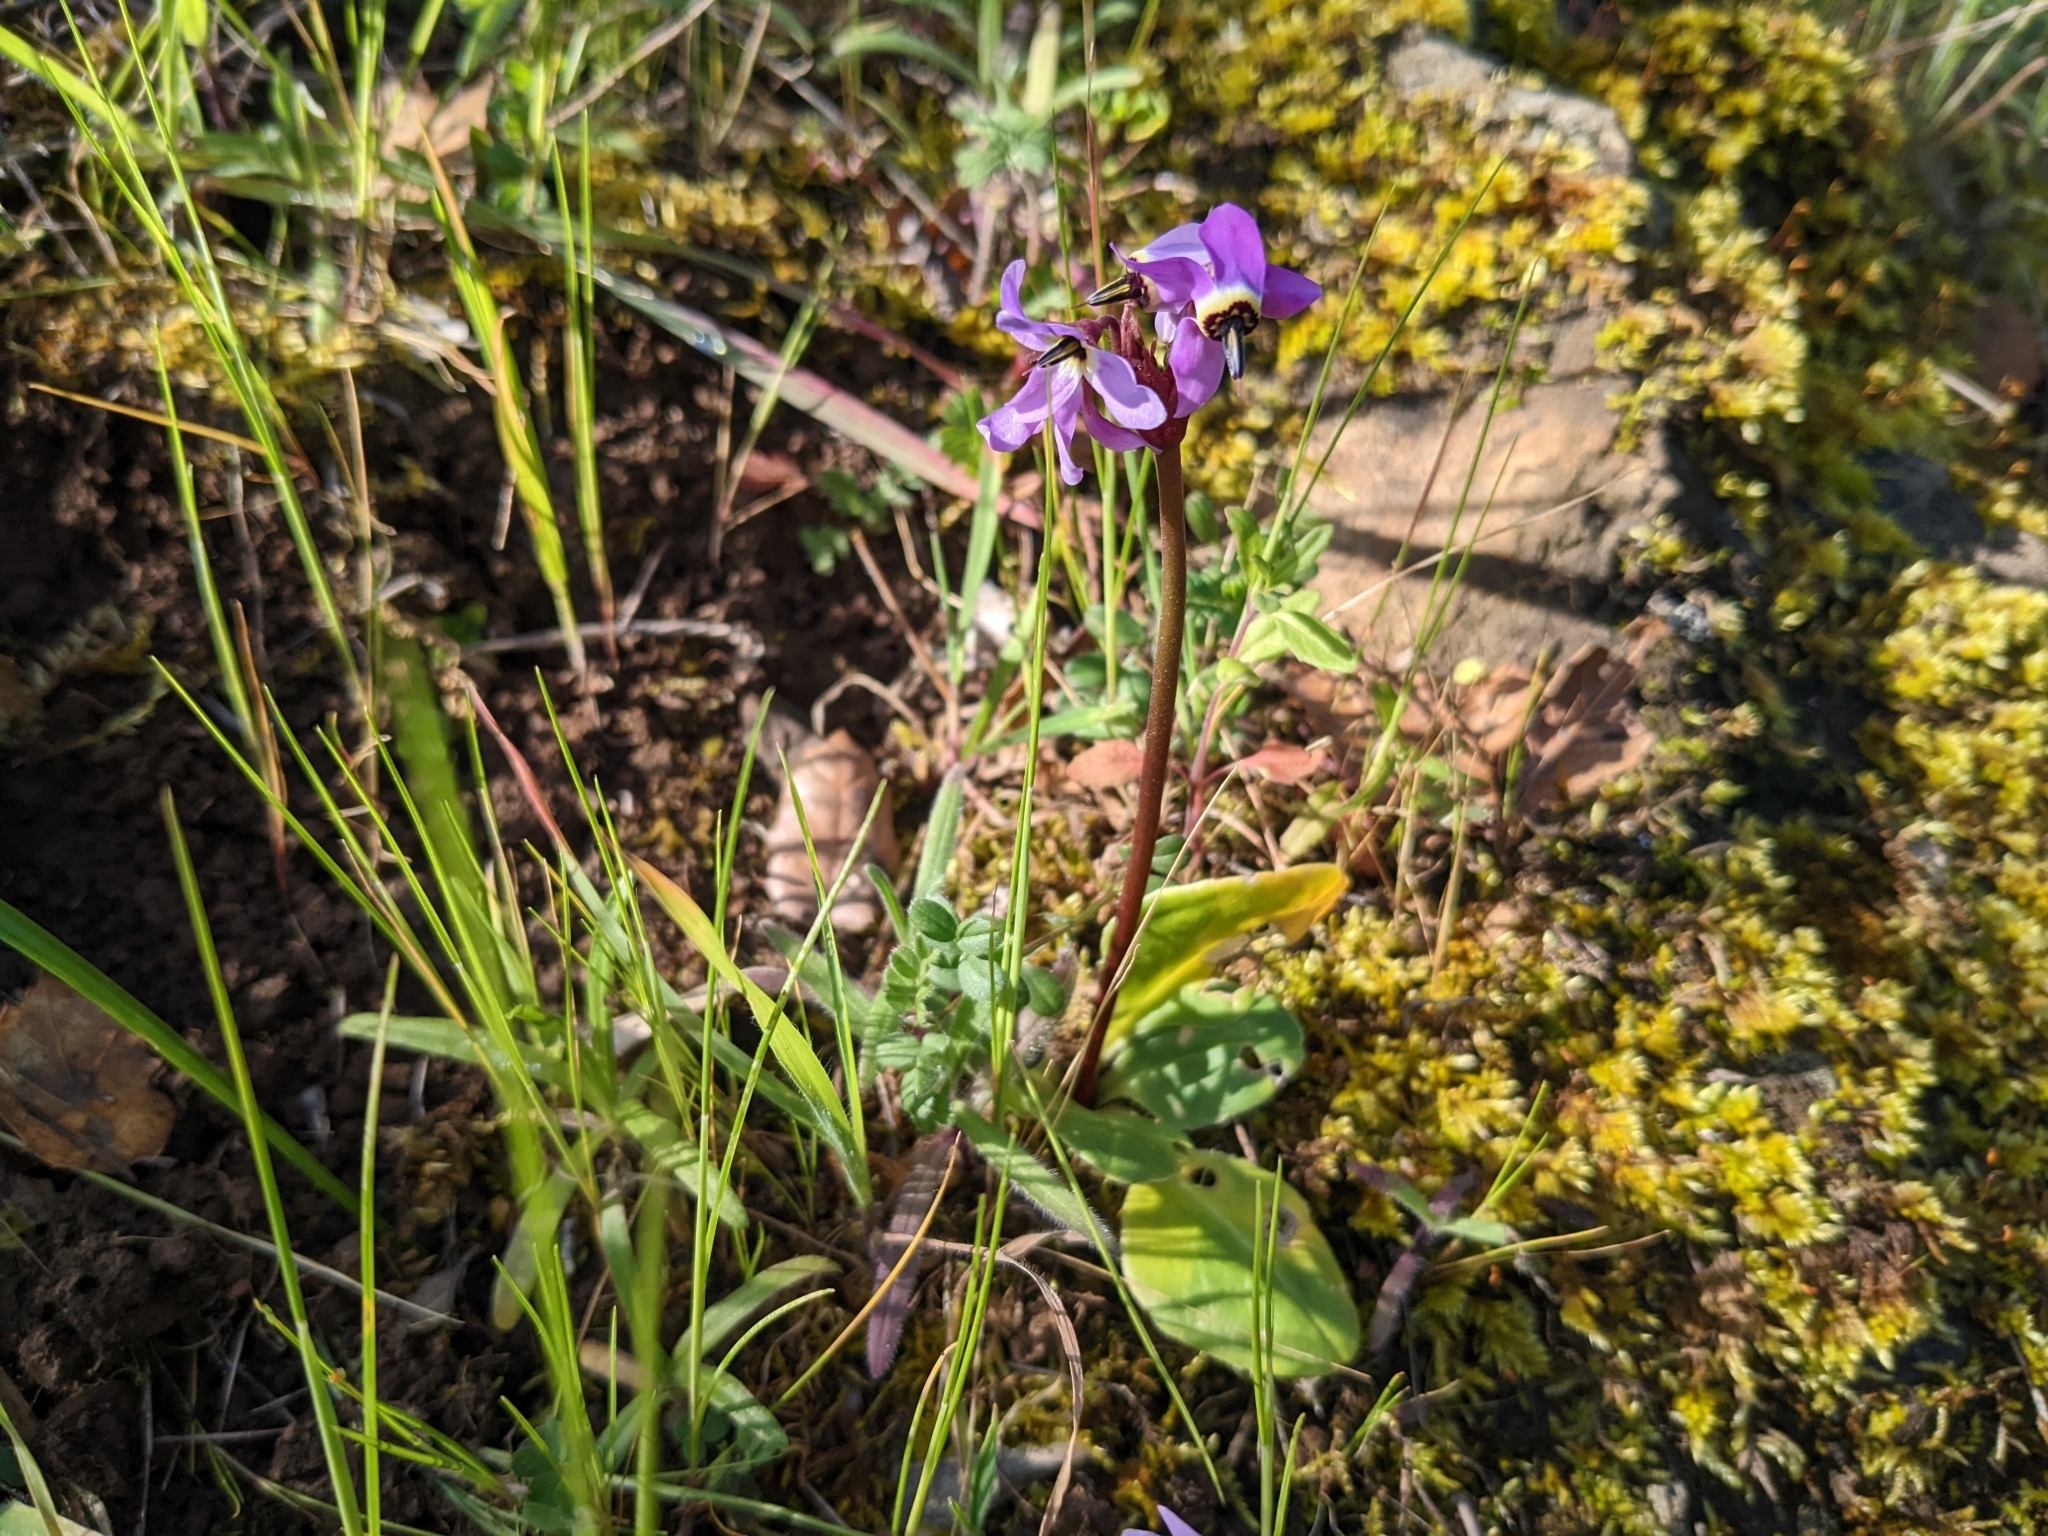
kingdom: Plantae
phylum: Tracheophyta
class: Magnoliopsida
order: Ericales
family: Primulaceae
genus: Dodecatheon
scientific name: Dodecatheon hendersonii
